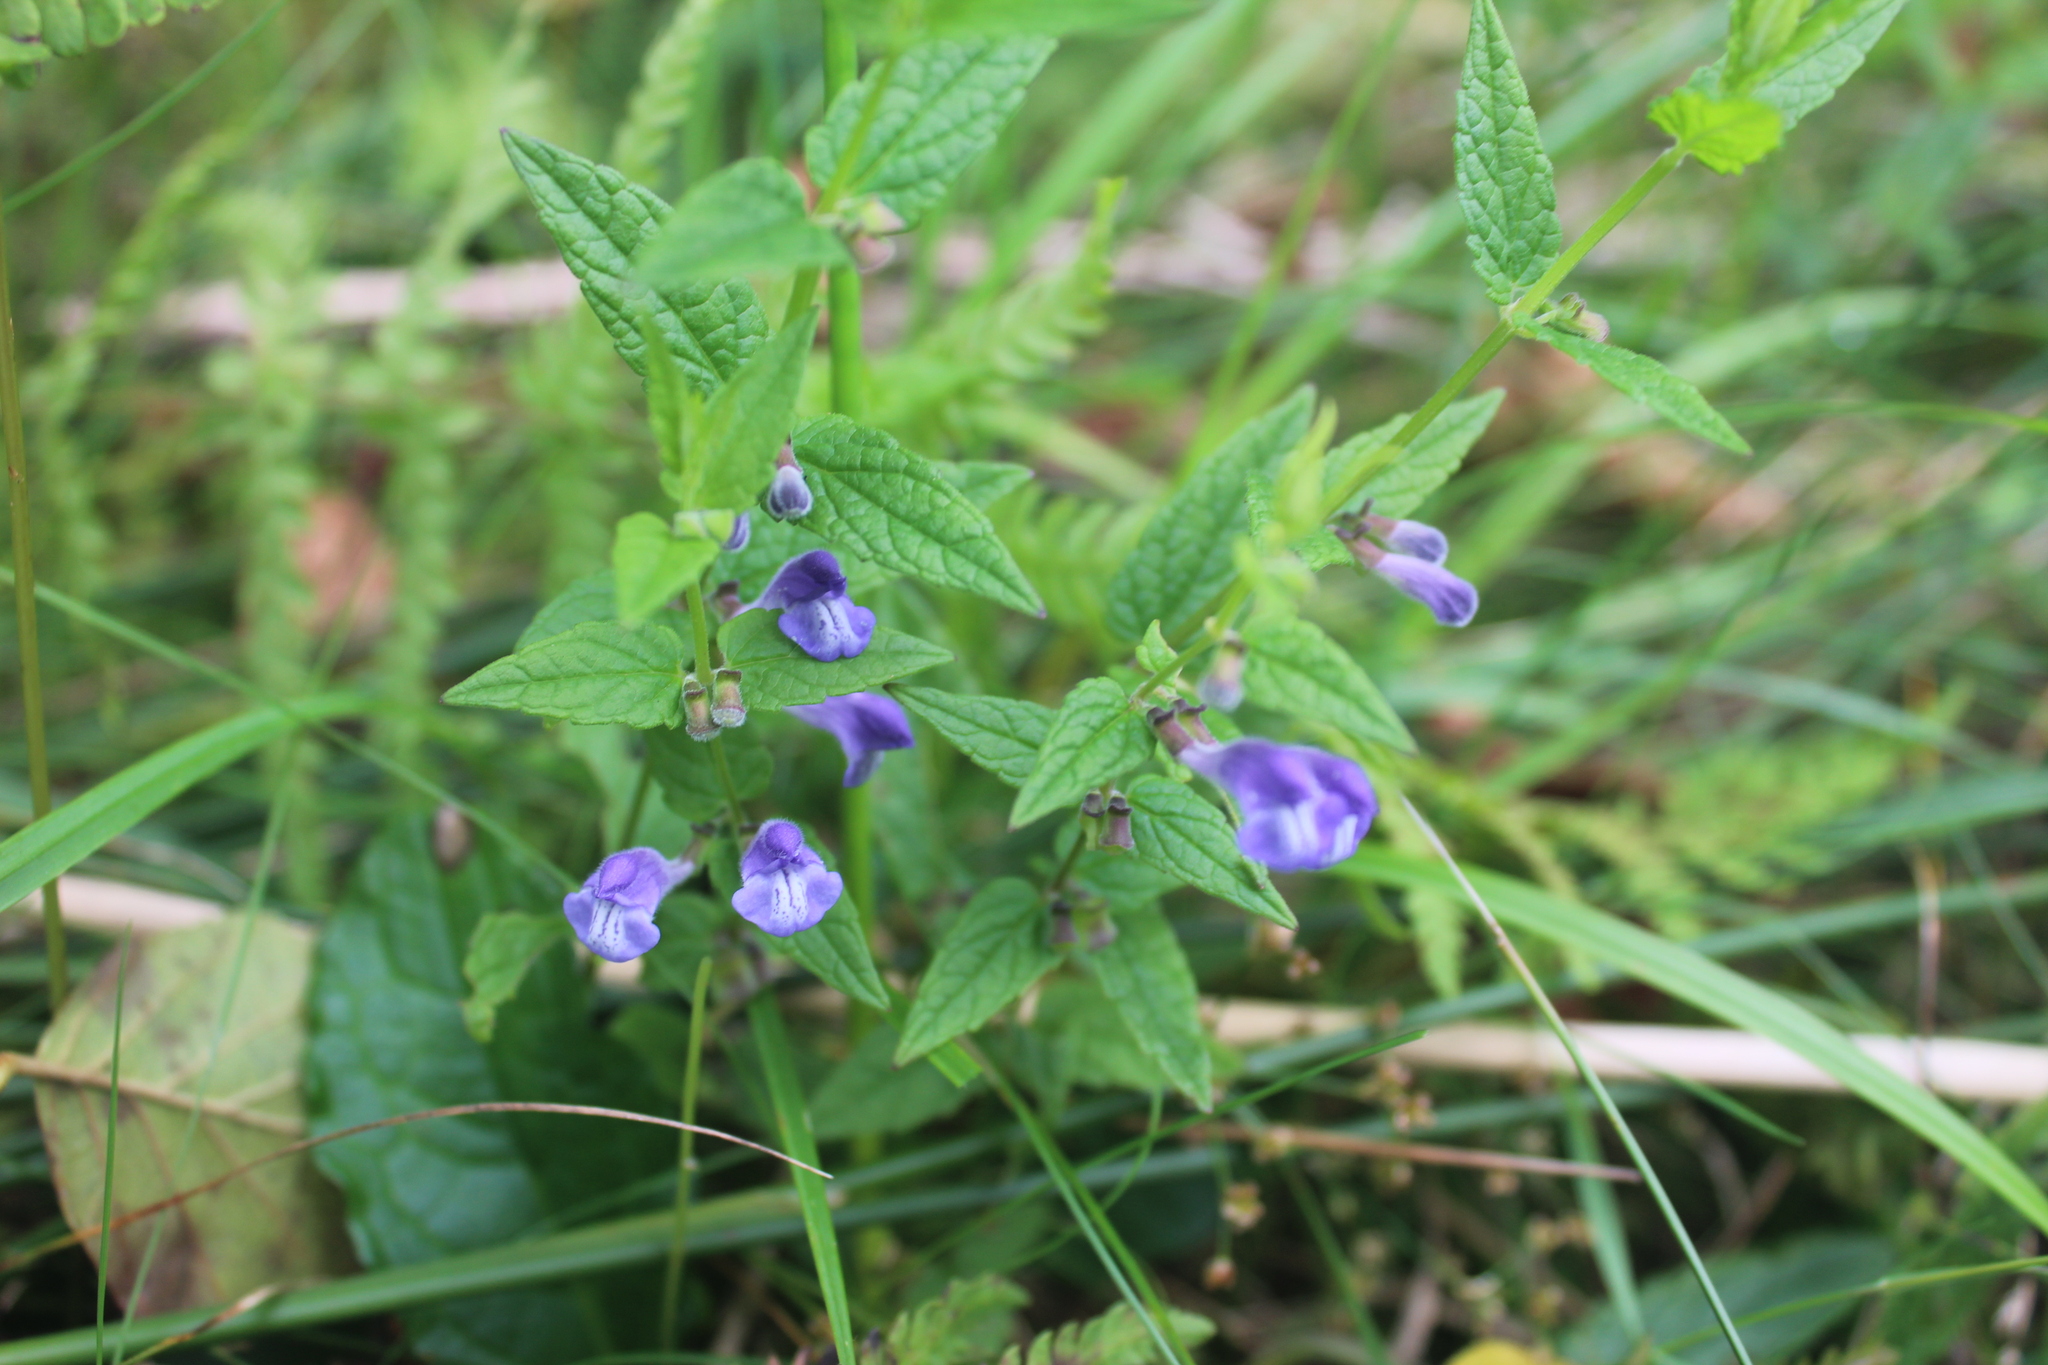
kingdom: Plantae
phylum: Tracheophyta
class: Magnoliopsida
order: Lamiales
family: Lamiaceae
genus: Scutellaria
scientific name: Scutellaria galericulata
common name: Skullcap
